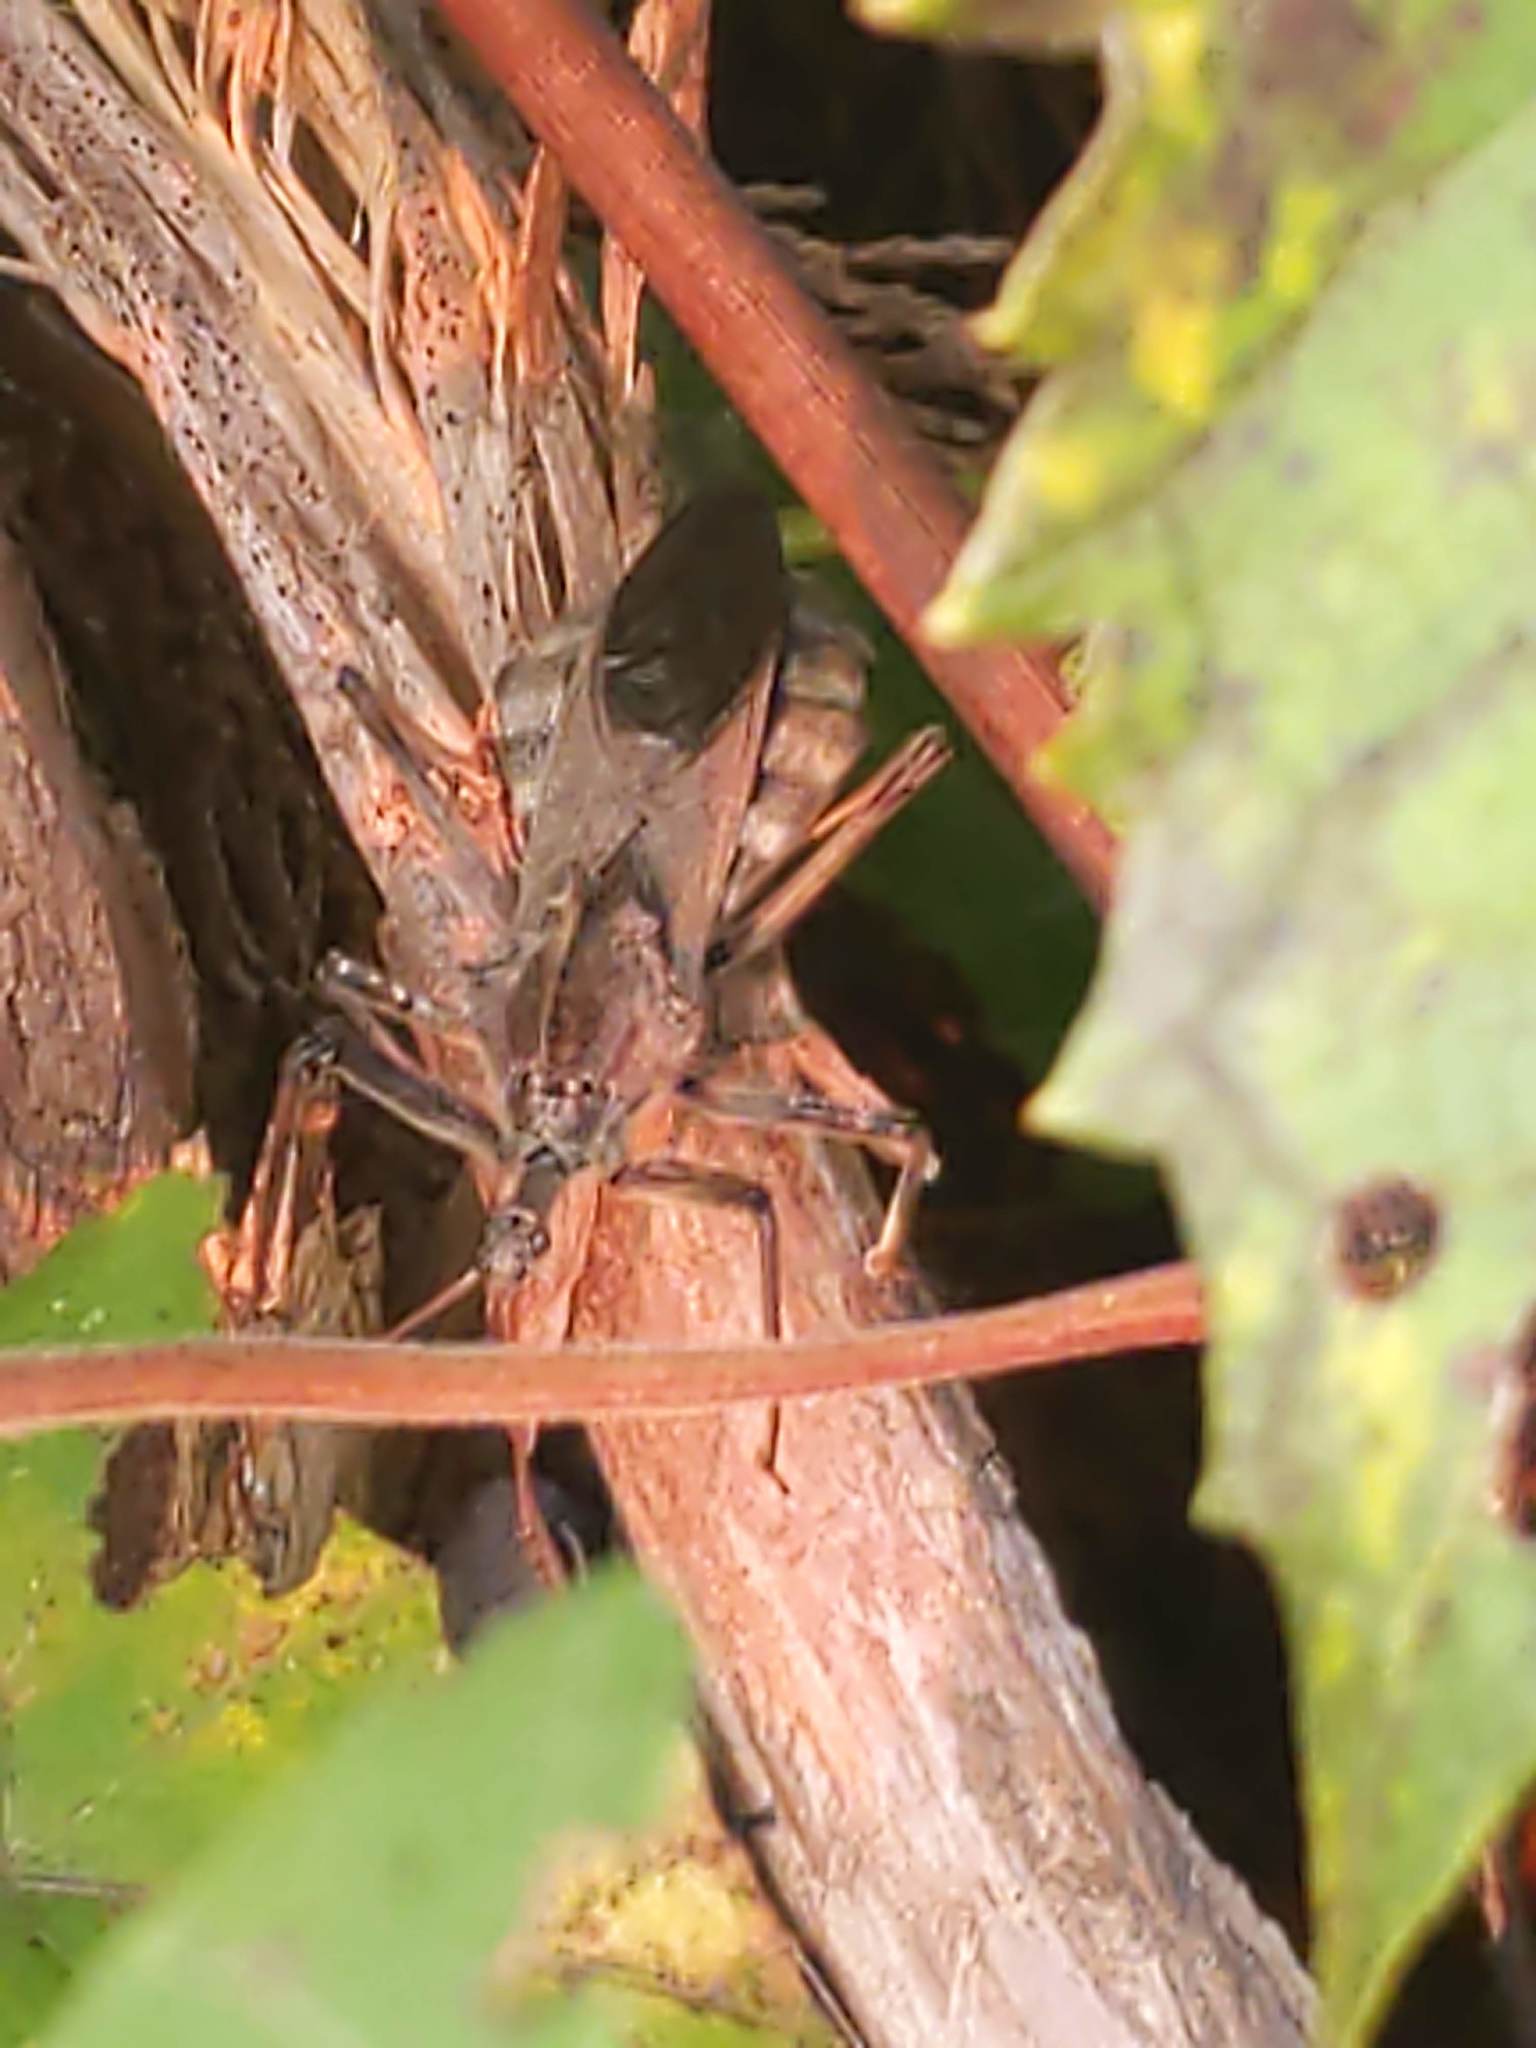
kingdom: Animalia
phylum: Arthropoda
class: Insecta
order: Hemiptera
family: Reduviidae
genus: Arilus
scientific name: Arilus cristatus
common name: North american wheel bug
